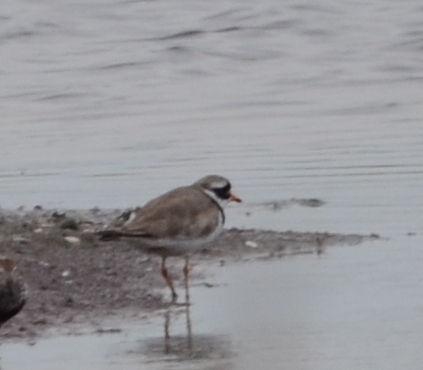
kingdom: Animalia
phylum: Chordata
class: Aves
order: Charadriiformes
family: Charadriidae
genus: Charadrius
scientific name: Charadrius hiaticula
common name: Common ringed plover
